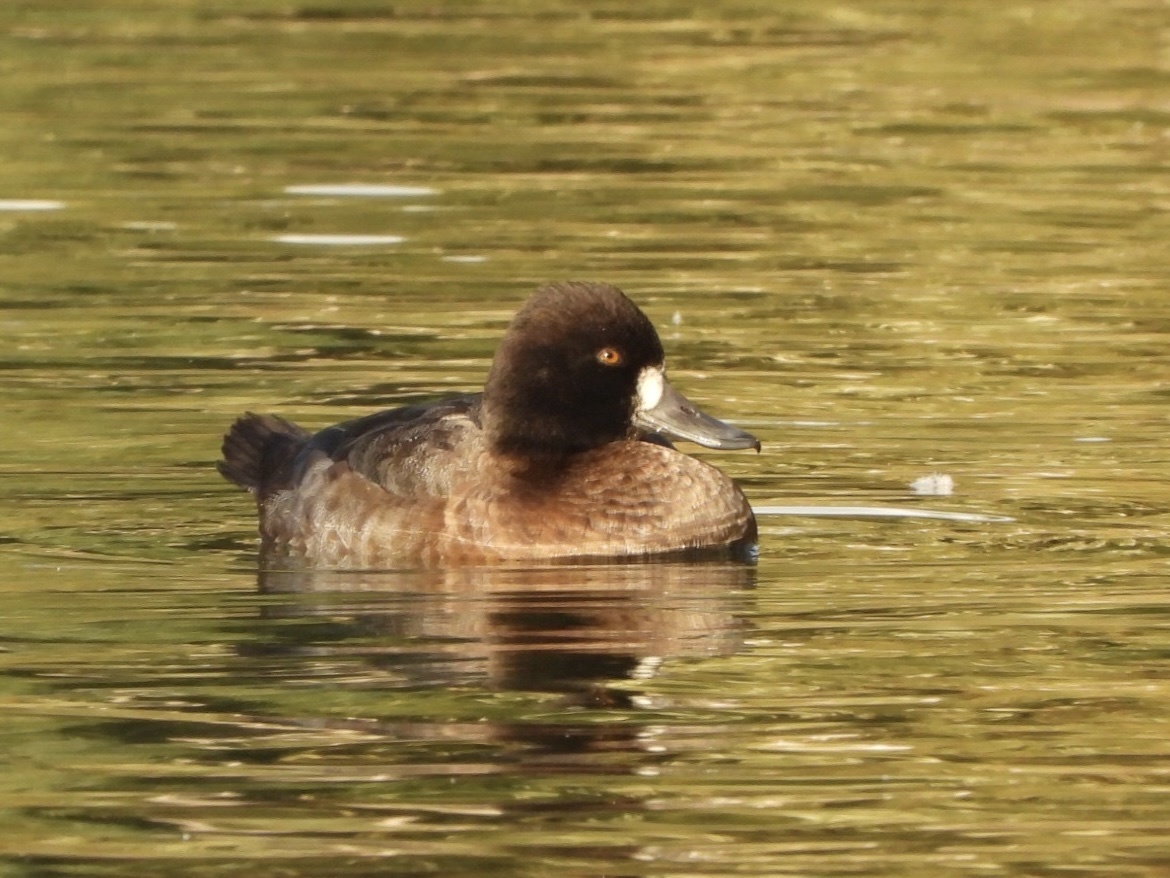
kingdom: Animalia
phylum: Chordata
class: Aves
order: Anseriformes
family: Anatidae
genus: Aythya
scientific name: Aythya affinis
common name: Lesser scaup
